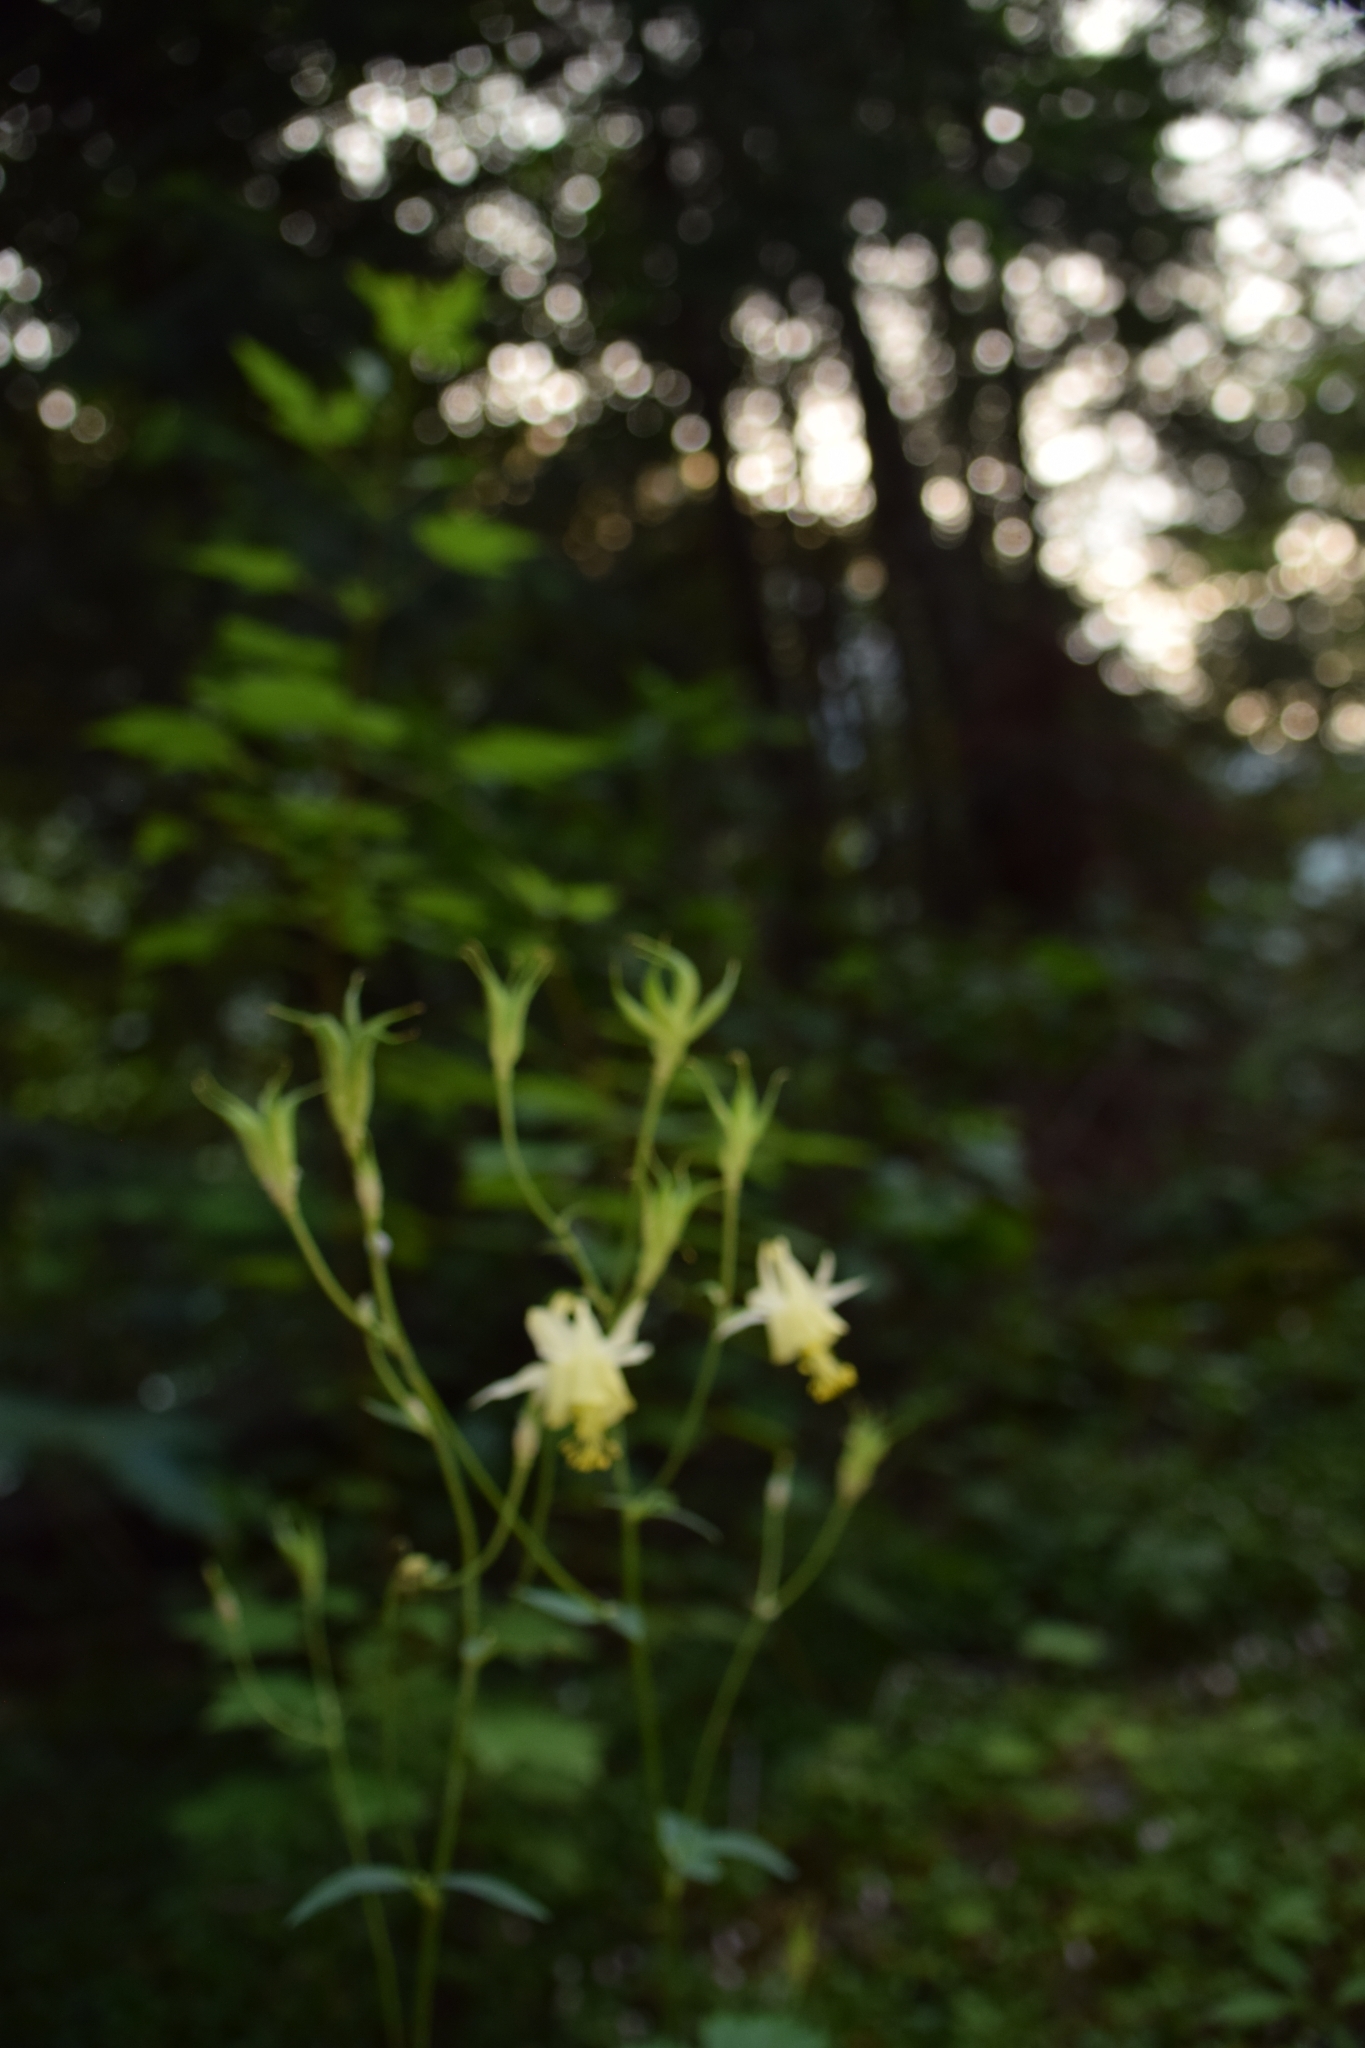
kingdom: Plantae
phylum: Tracheophyta
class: Magnoliopsida
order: Ranunculales
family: Ranunculaceae
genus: Aquilegia
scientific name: Aquilegia flavescens
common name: Yellow columbine
